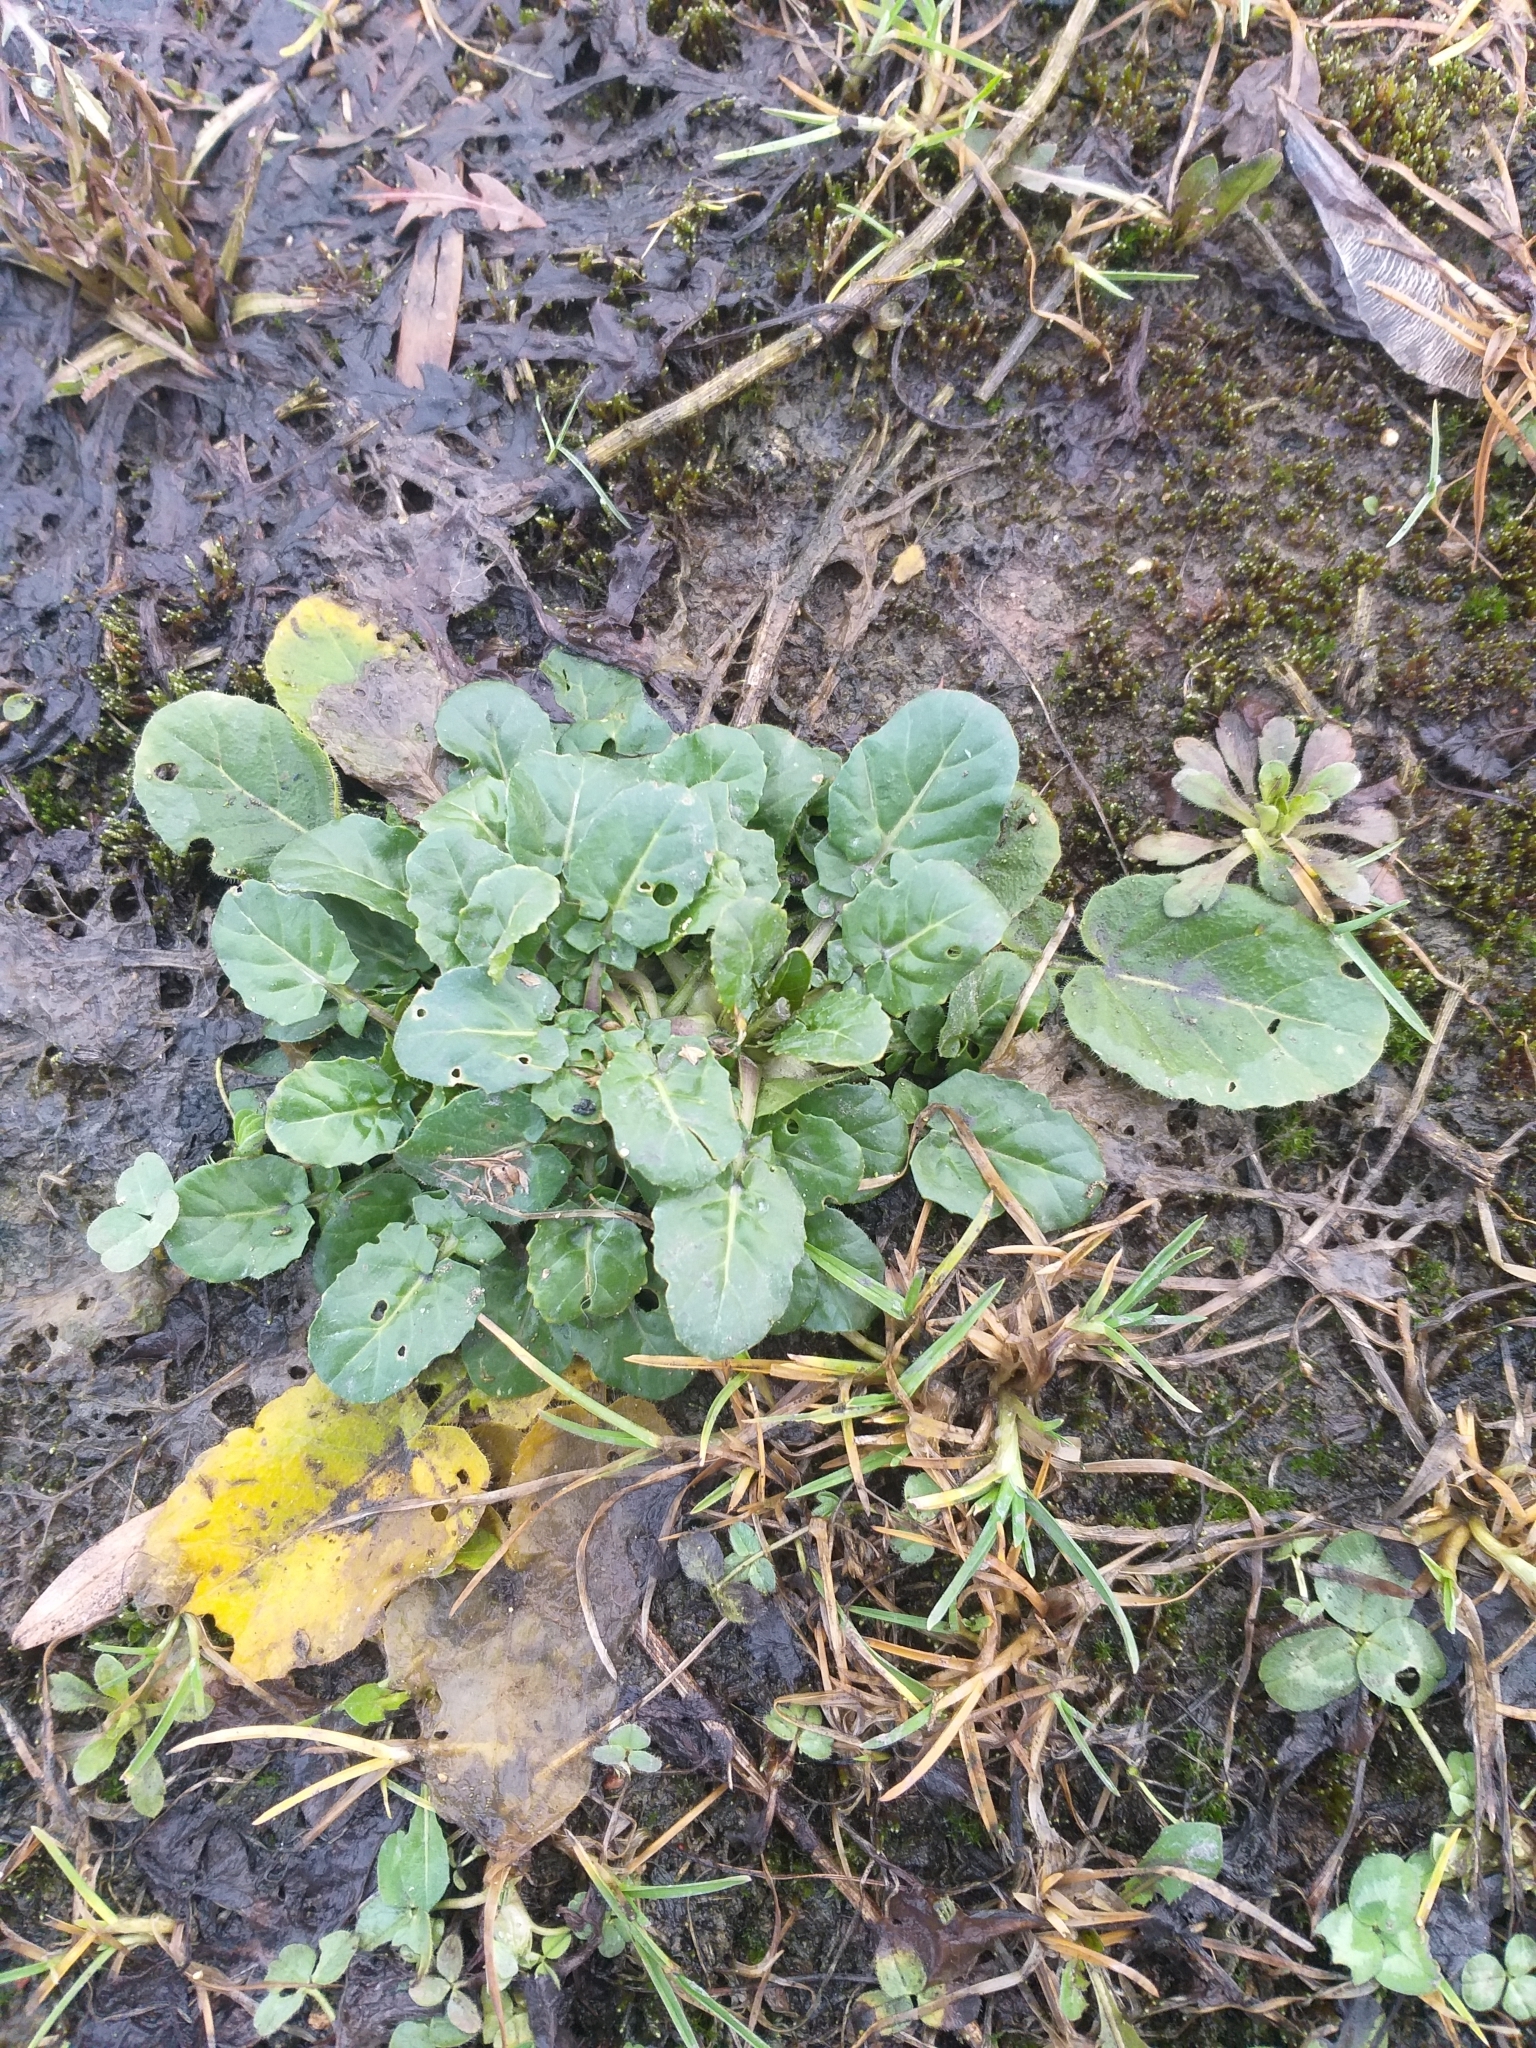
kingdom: Plantae
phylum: Tracheophyta
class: Magnoliopsida
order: Brassicales
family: Brassicaceae
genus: Barbarea
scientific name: Barbarea vulgaris
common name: Cressy-greens
